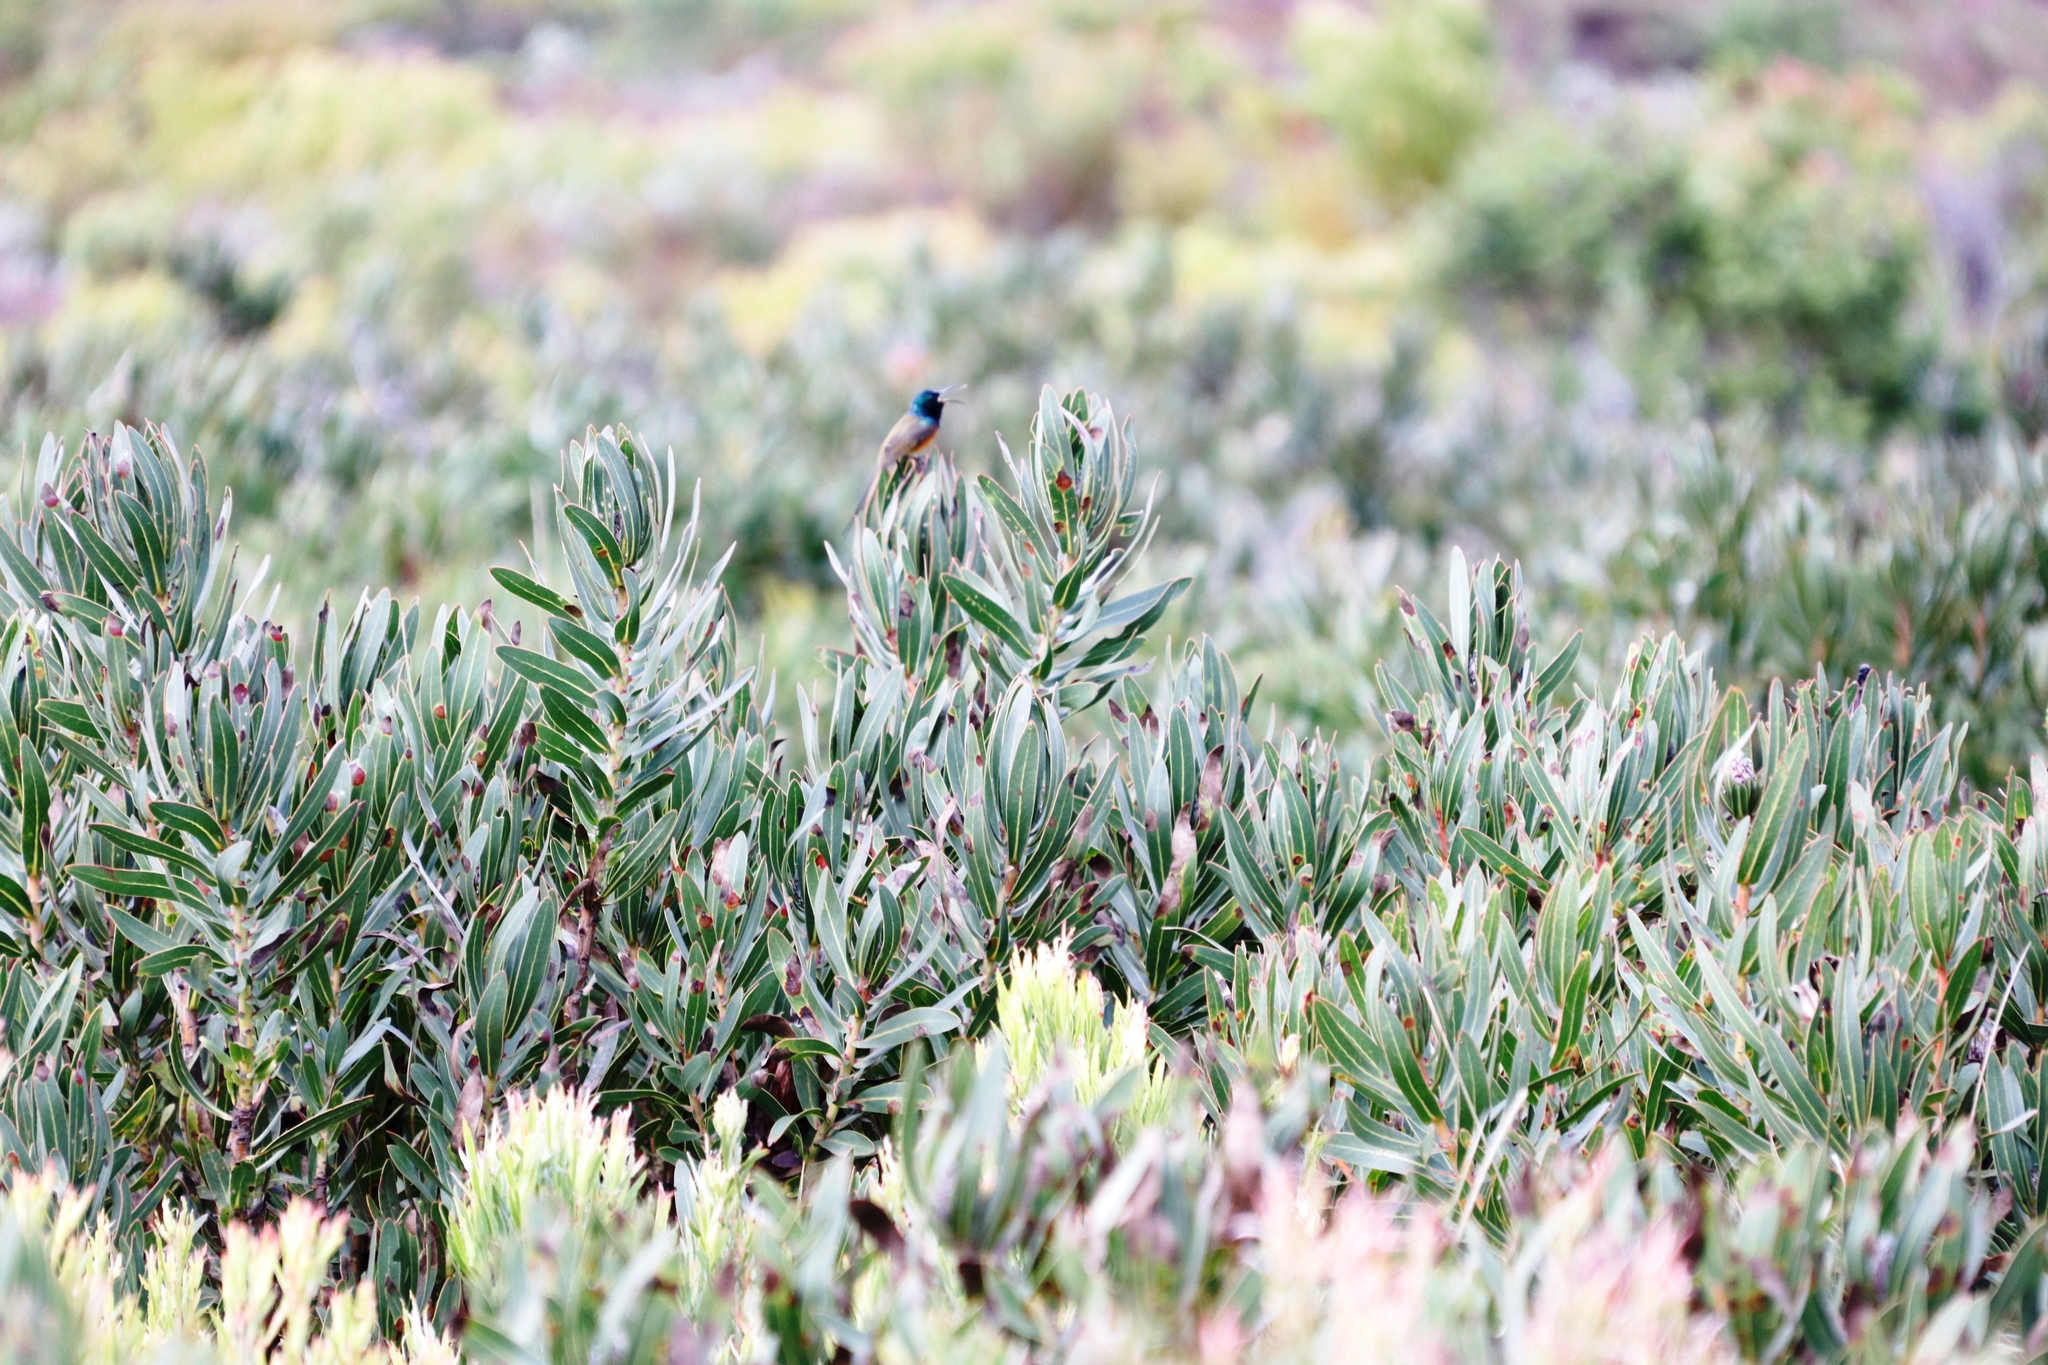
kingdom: Animalia
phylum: Chordata
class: Aves
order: Passeriformes
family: Nectariniidae
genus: Anthobaphes
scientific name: Anthobaphes violacea
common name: Orange-breasted sunbird
